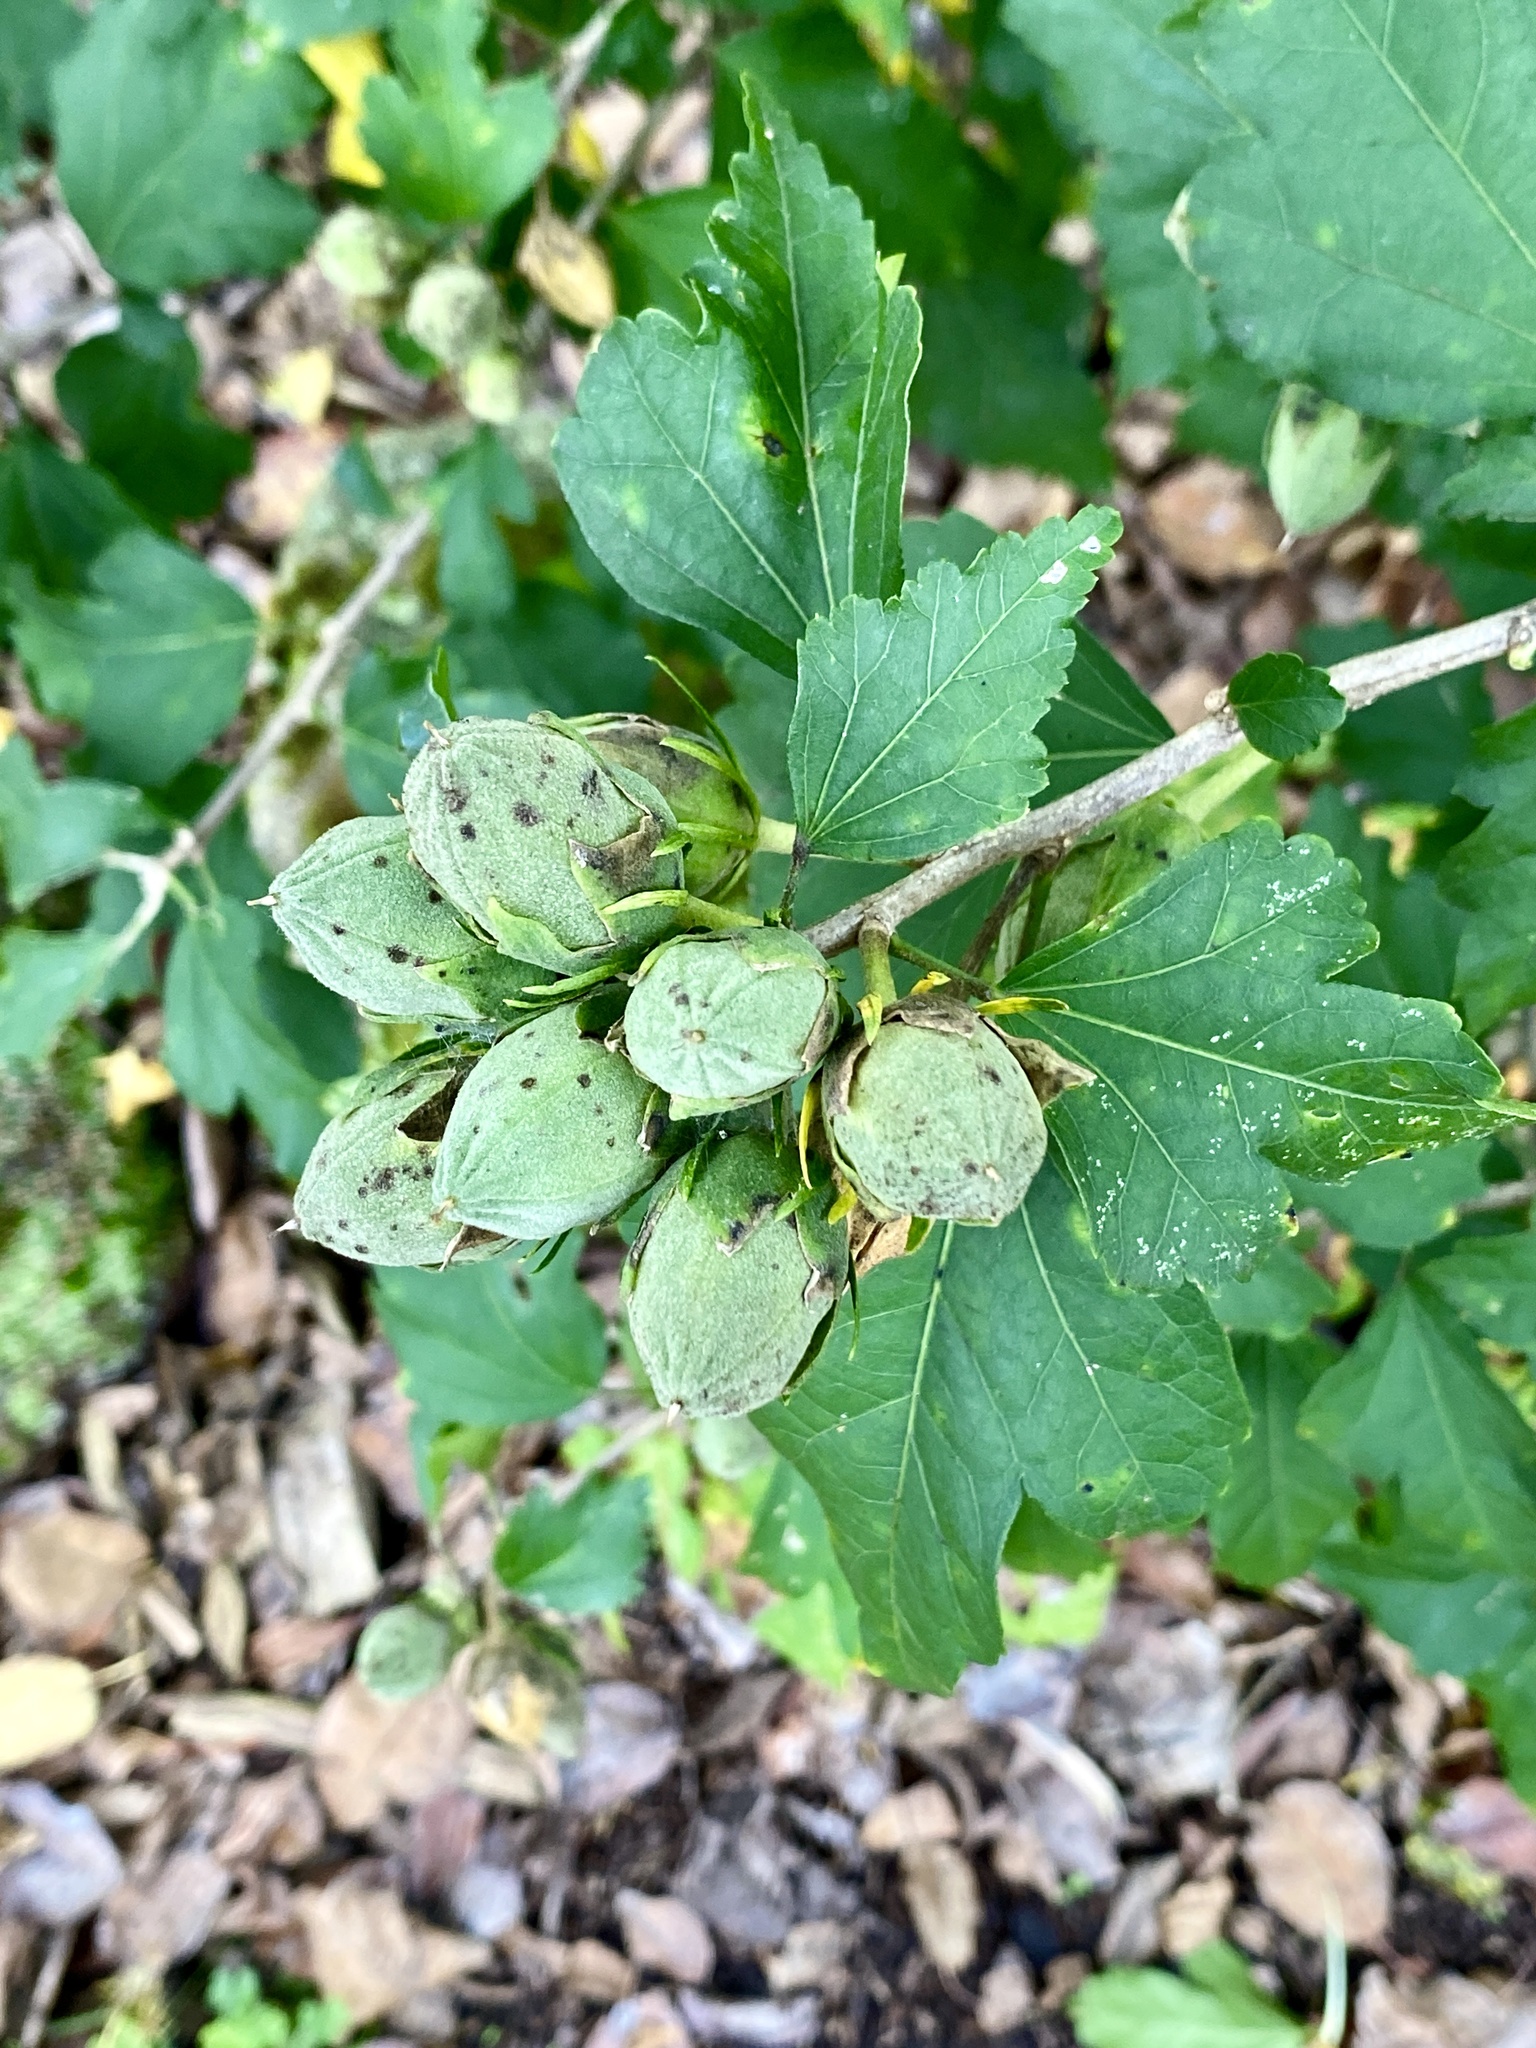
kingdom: Plantae
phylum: Tracheophyta
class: Magnoliopsida
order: Malvales
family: Malvaceae
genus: Hibiscus
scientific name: Hibiscus syriacus
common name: Syrian ketmia
